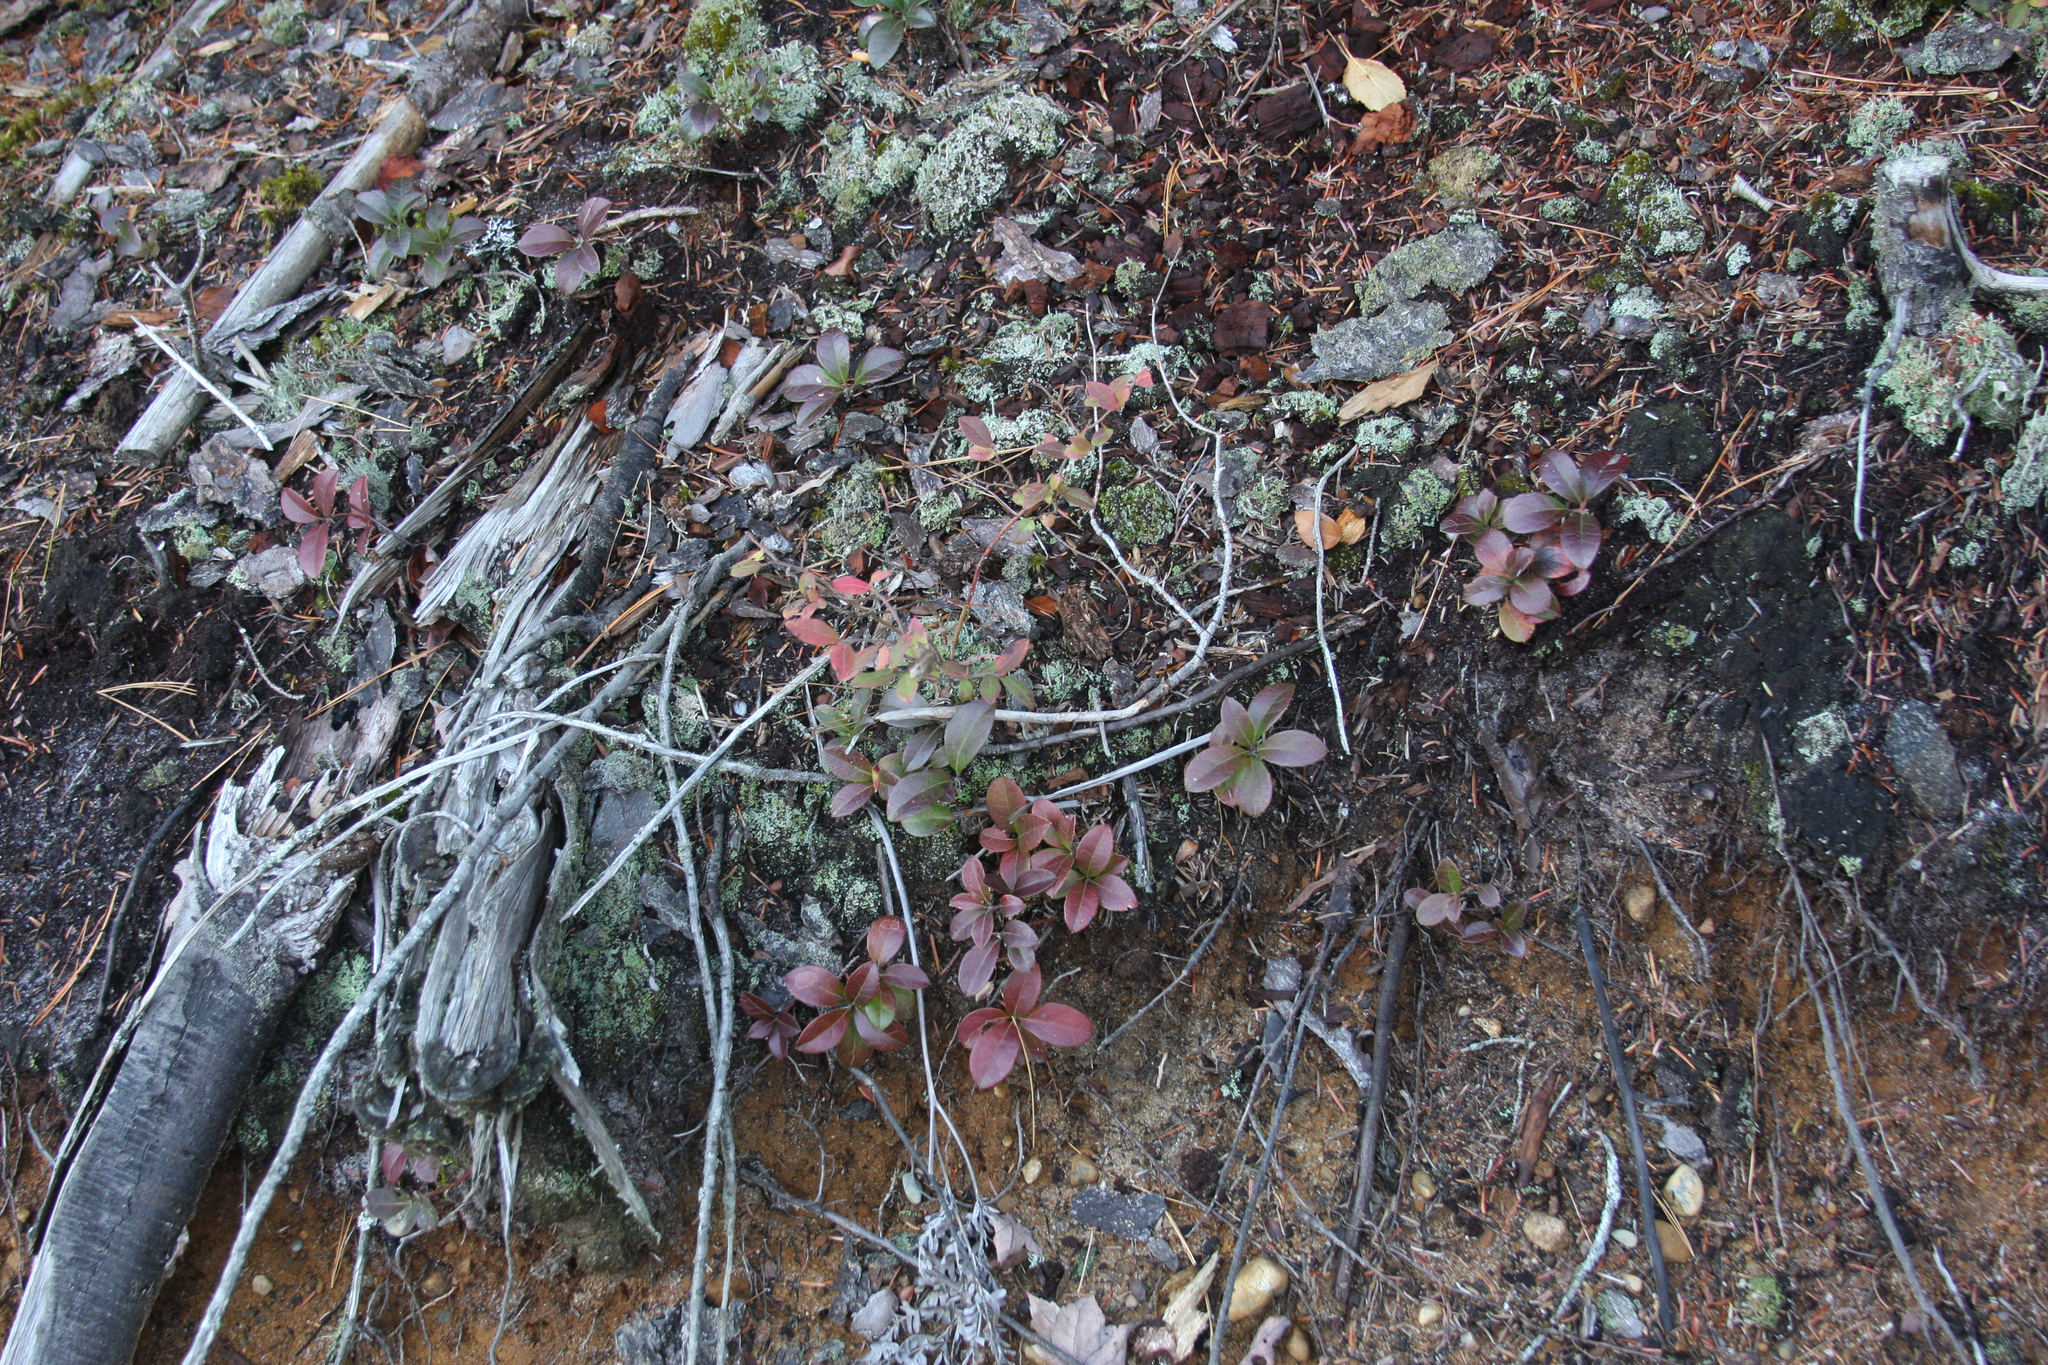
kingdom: Plantae
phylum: Tracheophyta
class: Magnoliopsida
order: Ericales
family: Ericaceae
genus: Gaultheria
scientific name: Gaultheria procumbens
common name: Checkerberry
